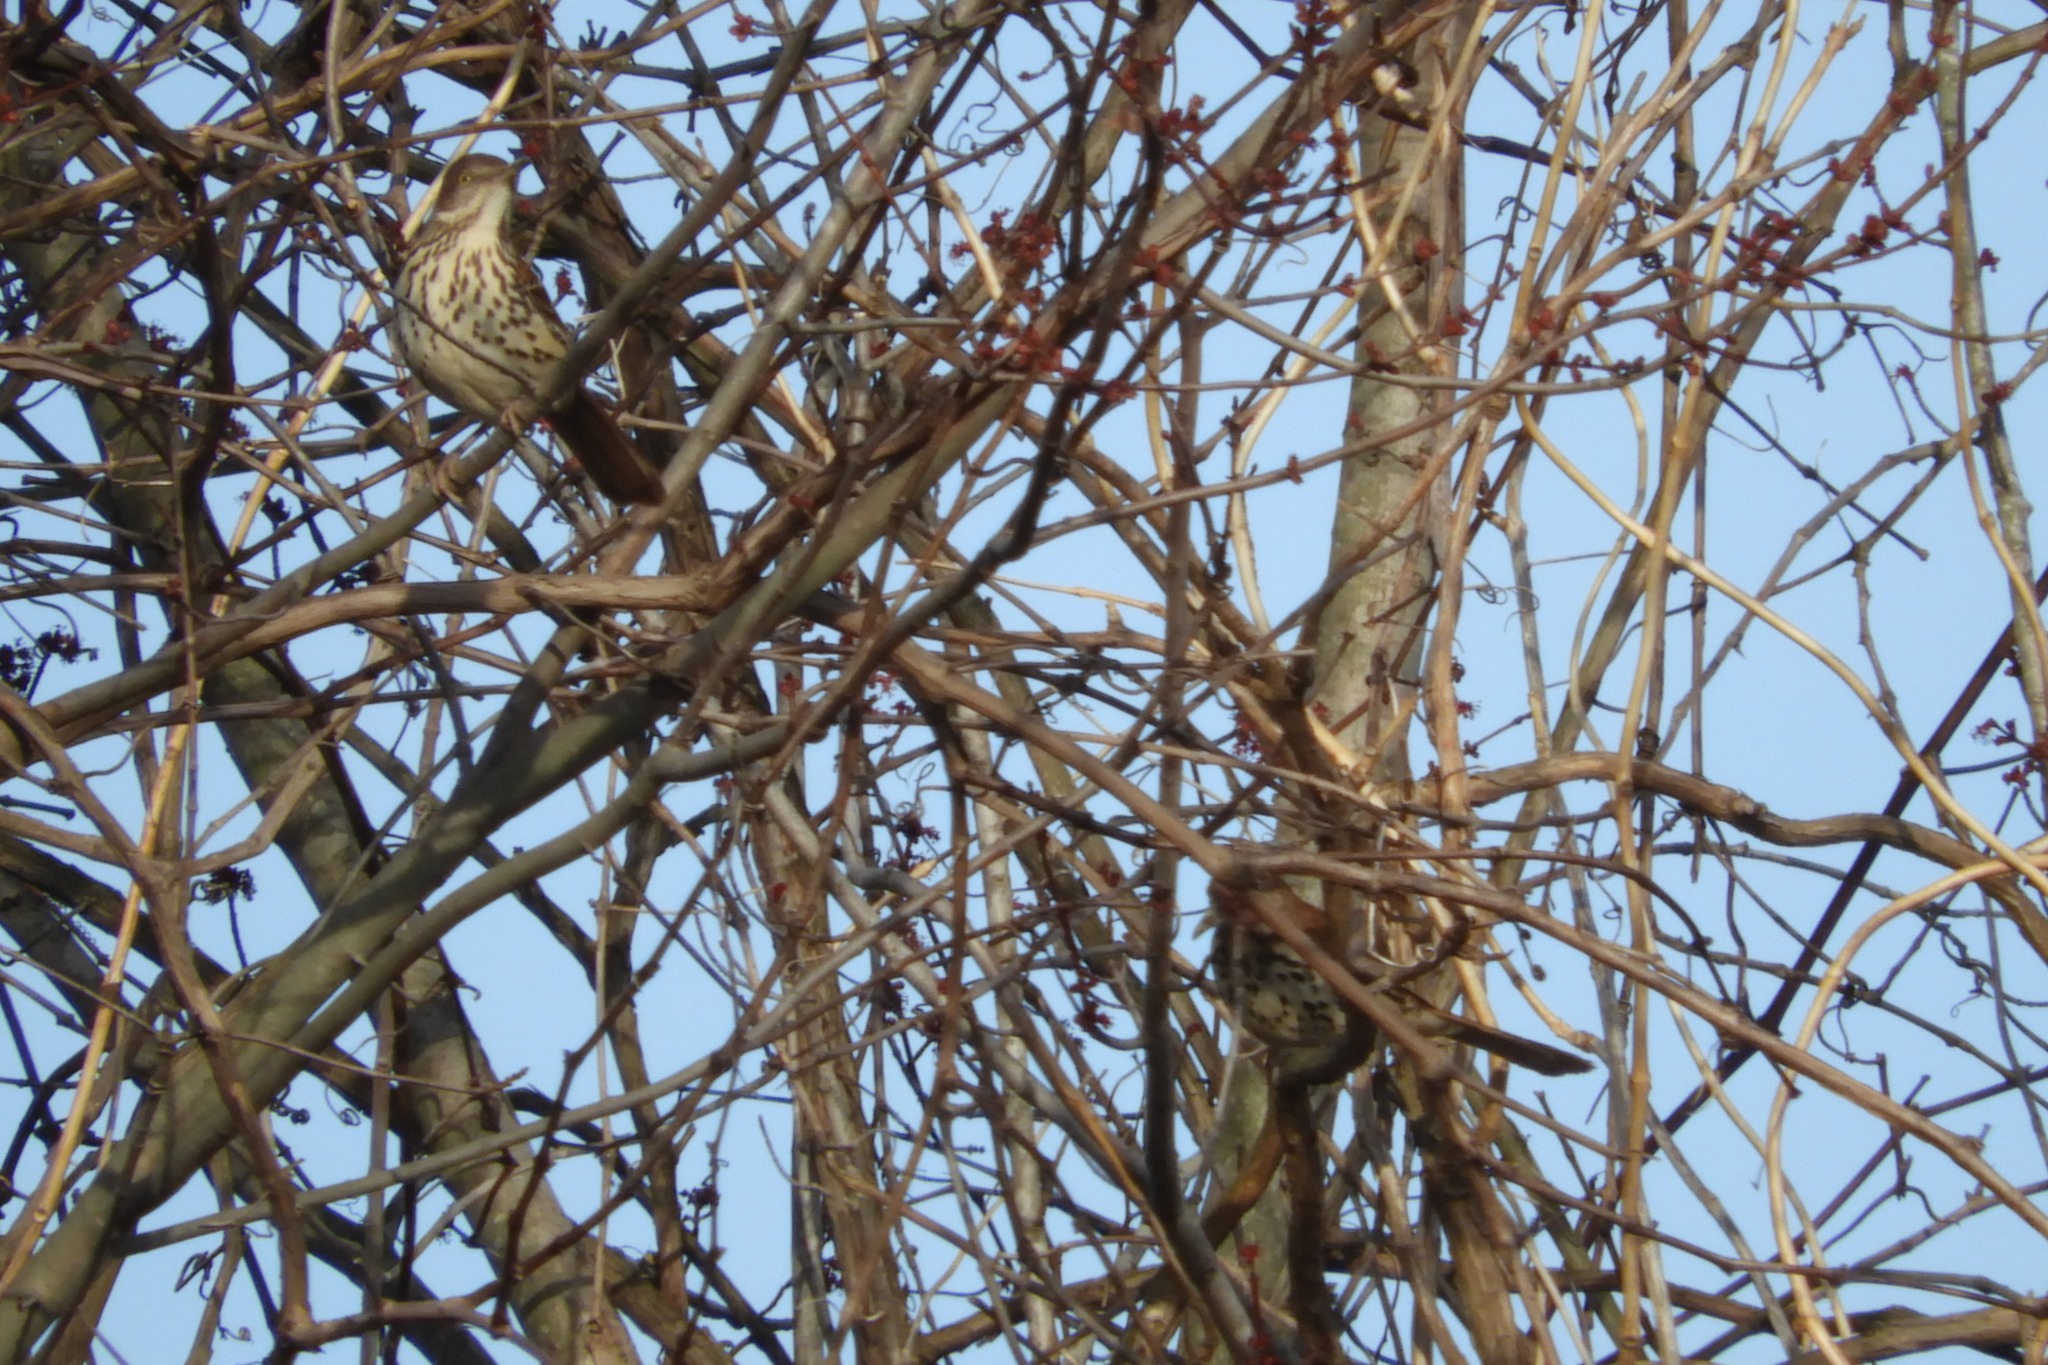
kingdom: Animalia
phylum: Chordata
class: Aves
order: Passeriformes
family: Mimidae
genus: Toxostoma
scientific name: Toxostoma rufum
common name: Brown thrasher
